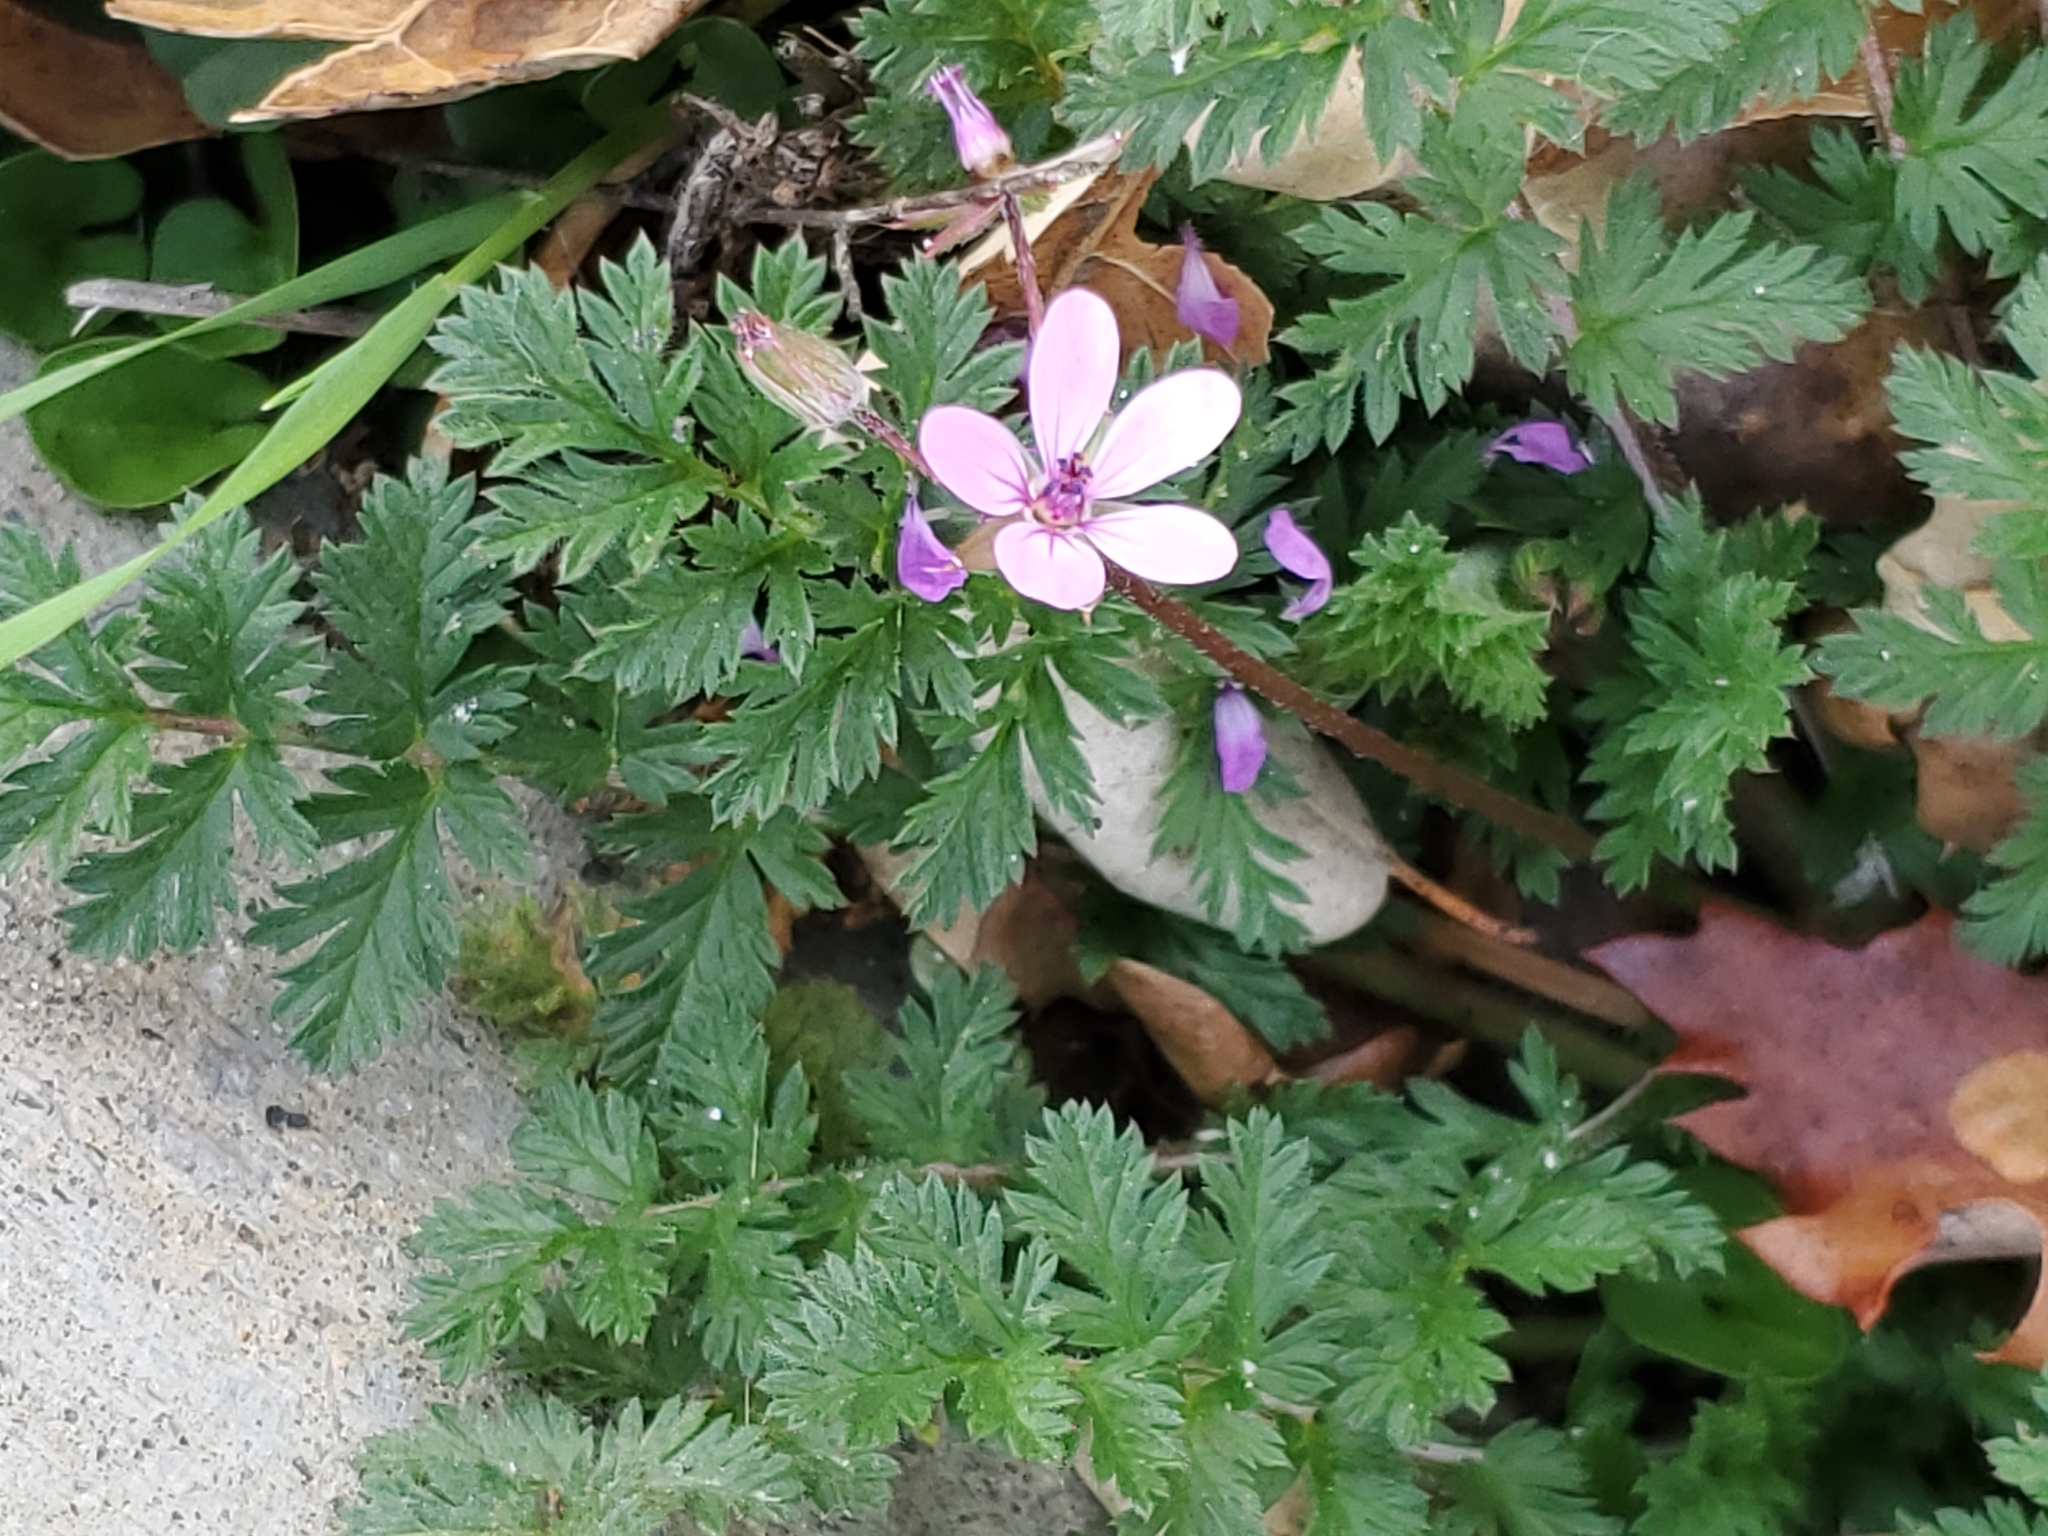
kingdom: Plantae
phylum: Tracheophyta
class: Magnoliopsida
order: Geraniales
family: Geraniaceae
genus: Erodium
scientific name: Erodium cicutarium
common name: Common stork's-bill
